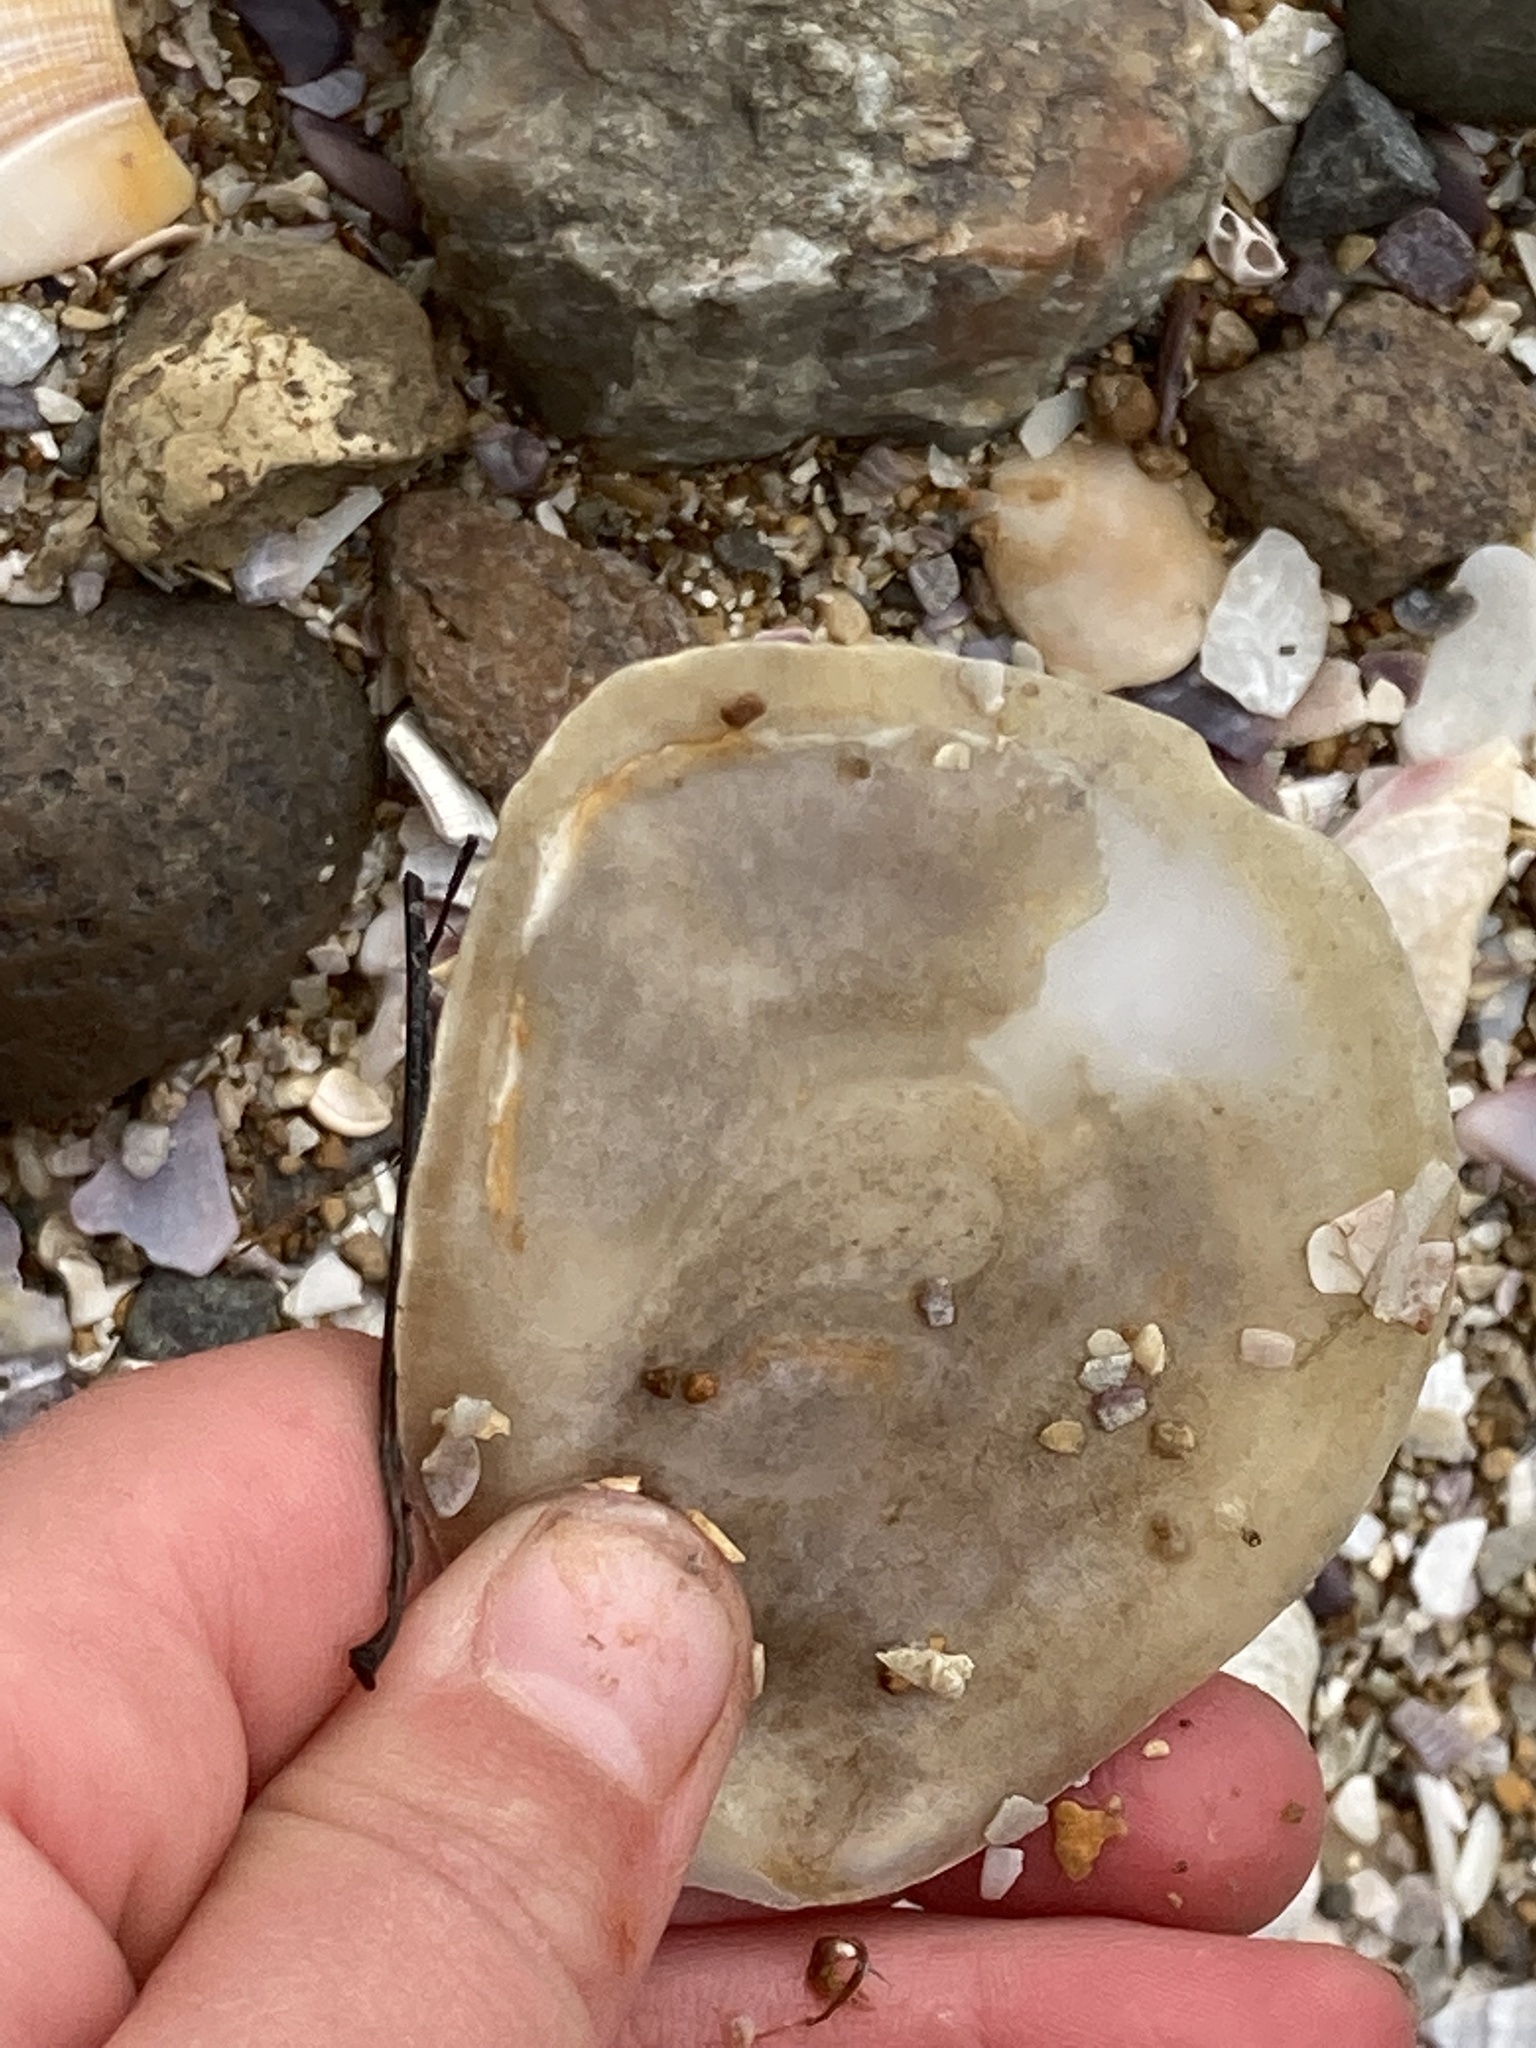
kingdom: Animalia
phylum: Mollusca
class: Bivalvia
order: Ostreida
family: Ostreidae
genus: Ostrea
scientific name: Ostrea chilensis
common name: Chilean oyster
